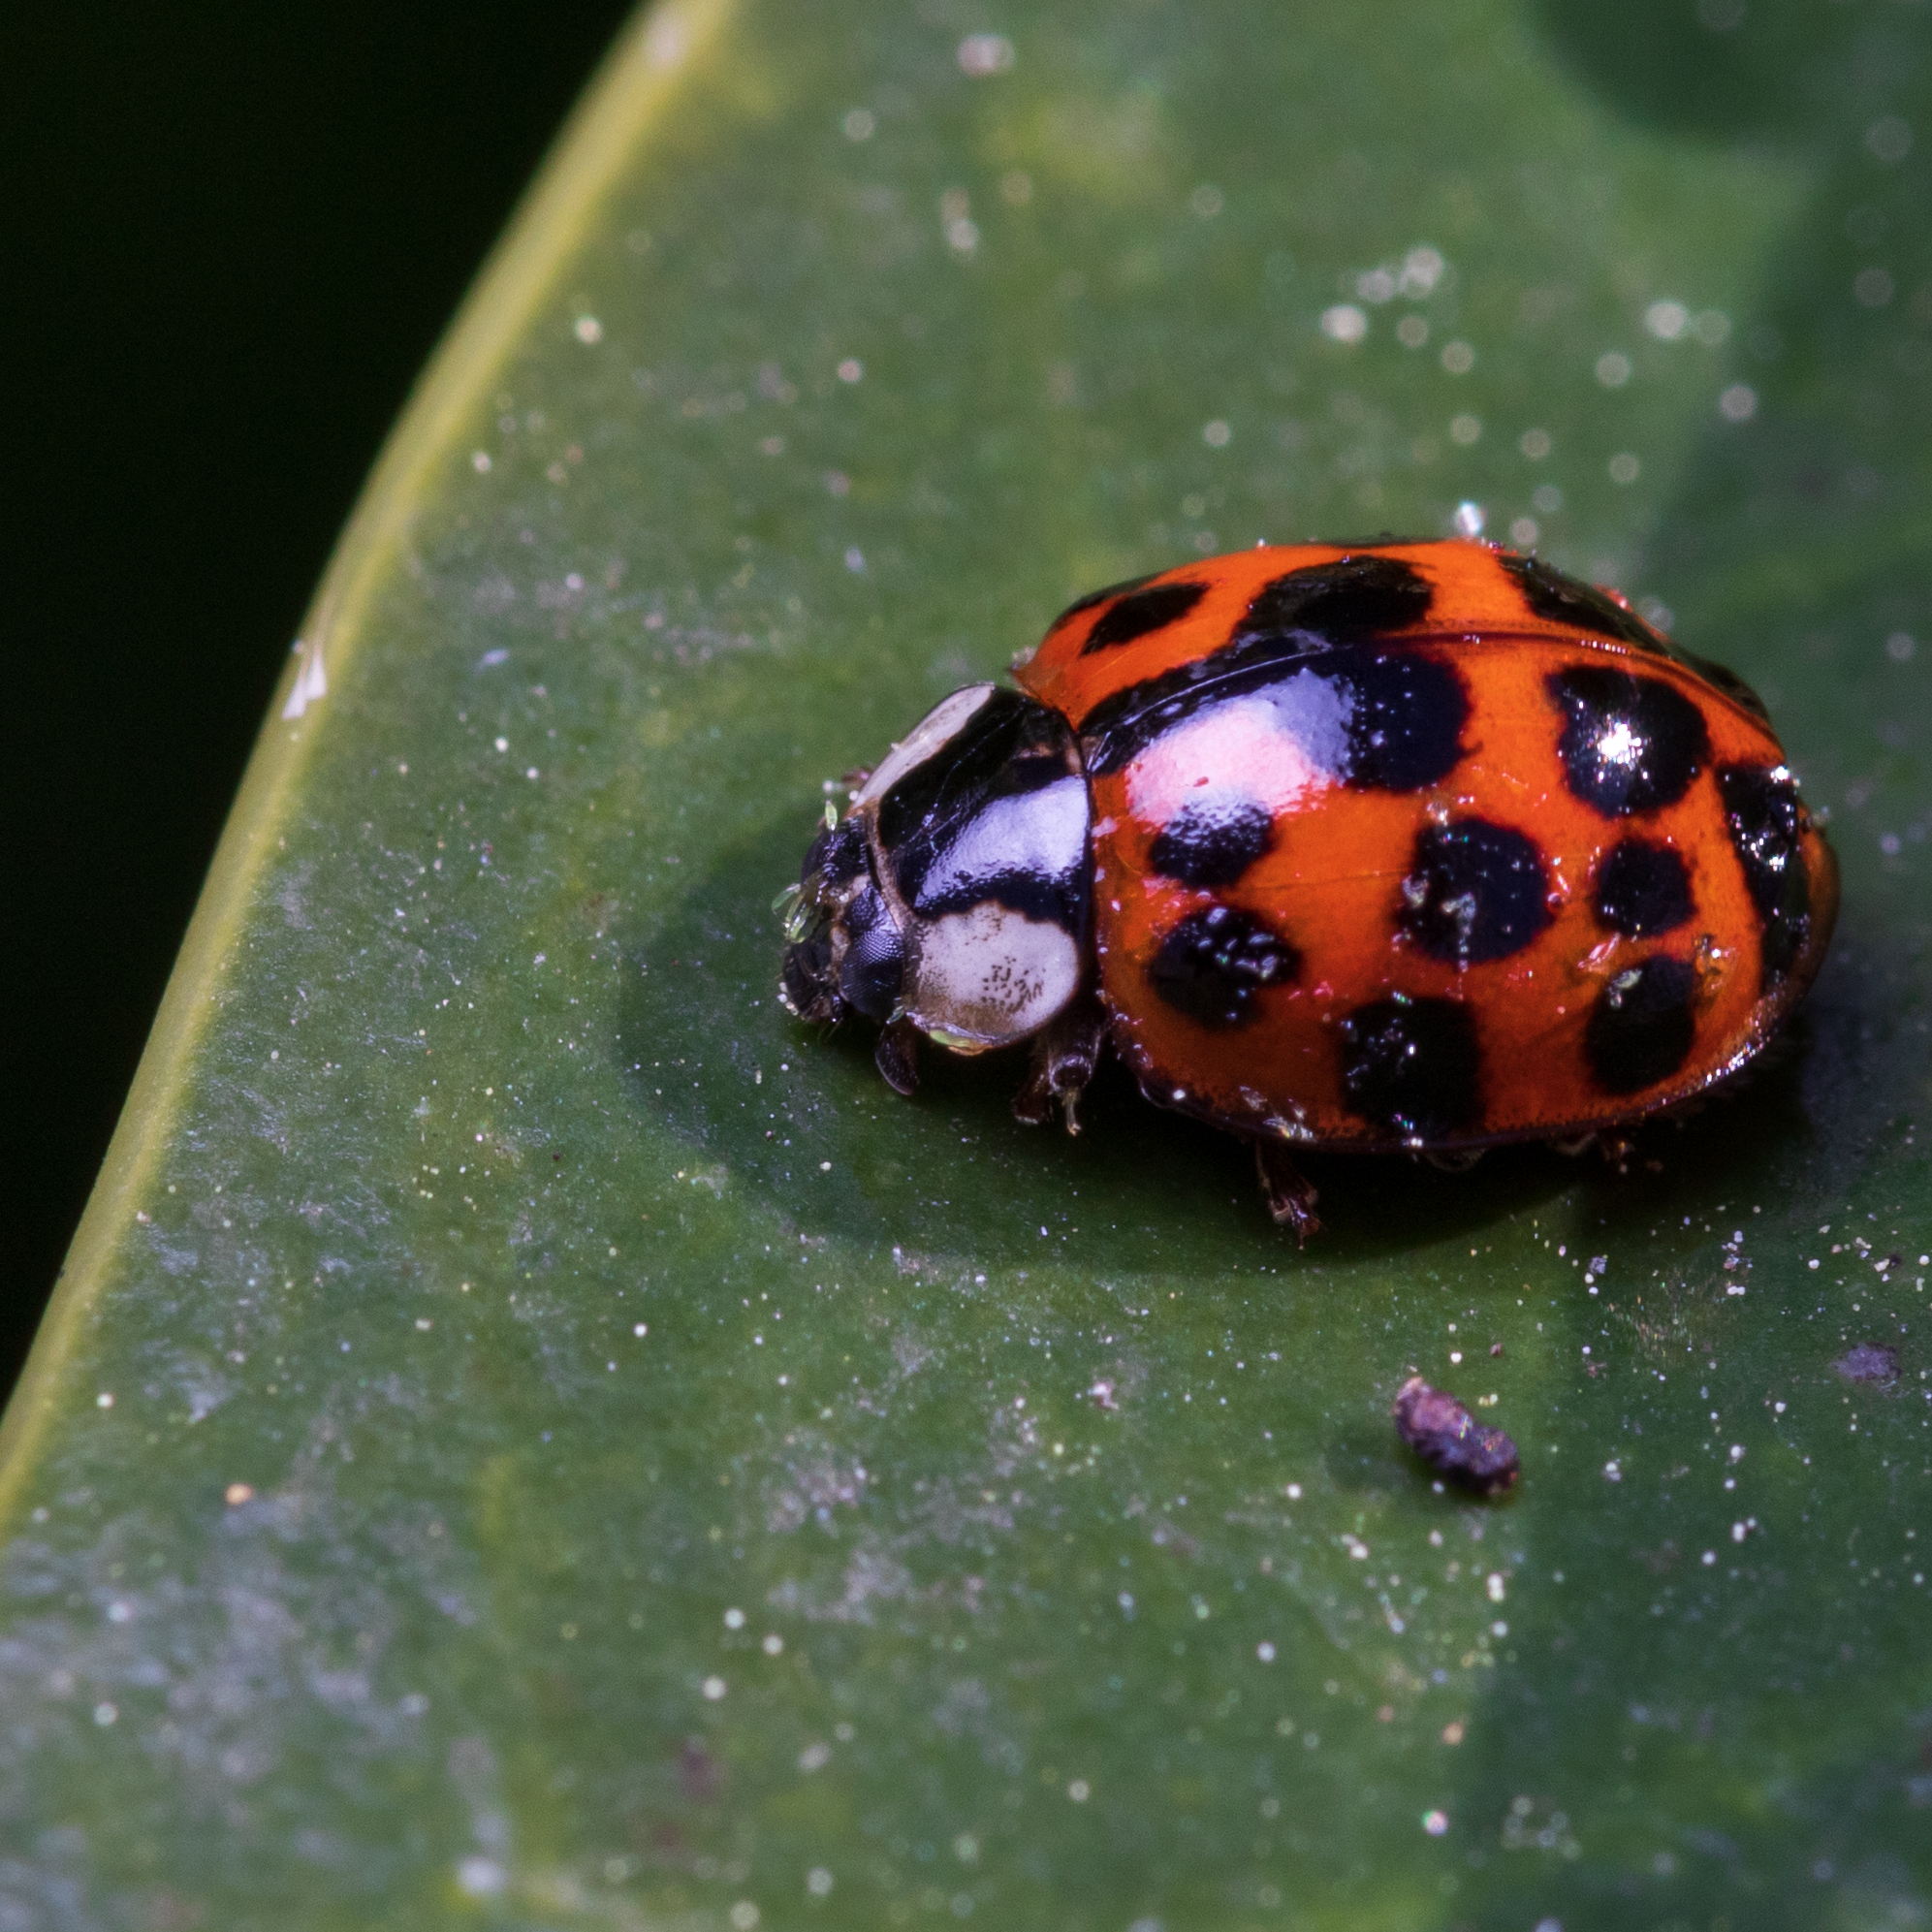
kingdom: Animalia
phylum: Arthropoda
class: Insecta
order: Coleoptera
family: Coccinellidae
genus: Harmonia
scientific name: Harmonia axyridis
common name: Harlequin ladybird
